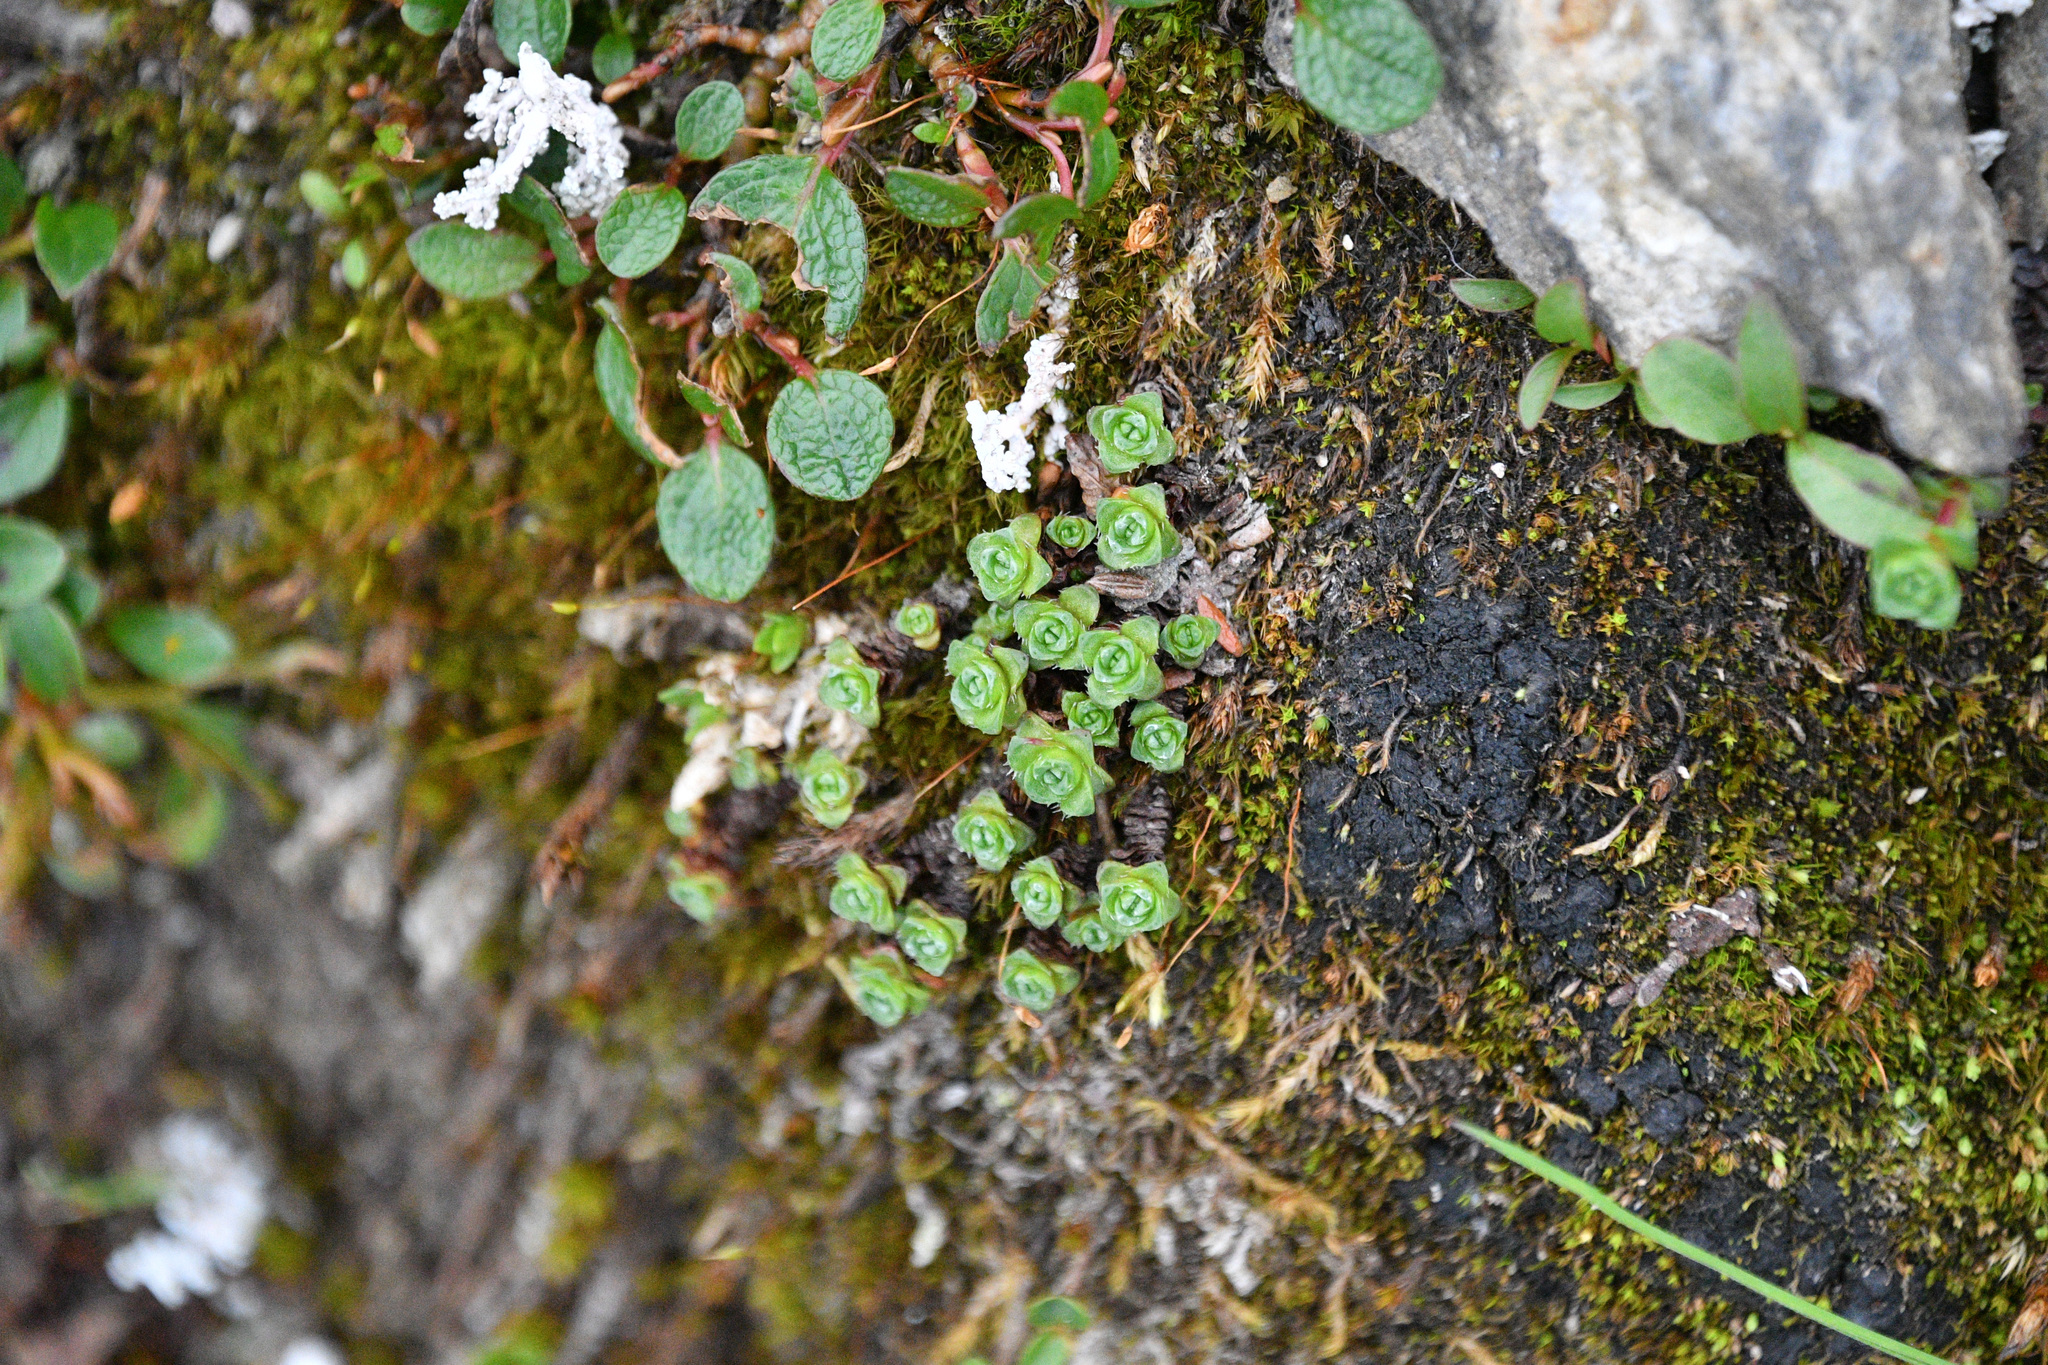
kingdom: Plantae
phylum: Tracheophyta
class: Magnoliopsida
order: Saxifragales
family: Saxifragaceae
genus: Saxifraga
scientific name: Saxifraga oppositifolia
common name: Purple saxifrage
